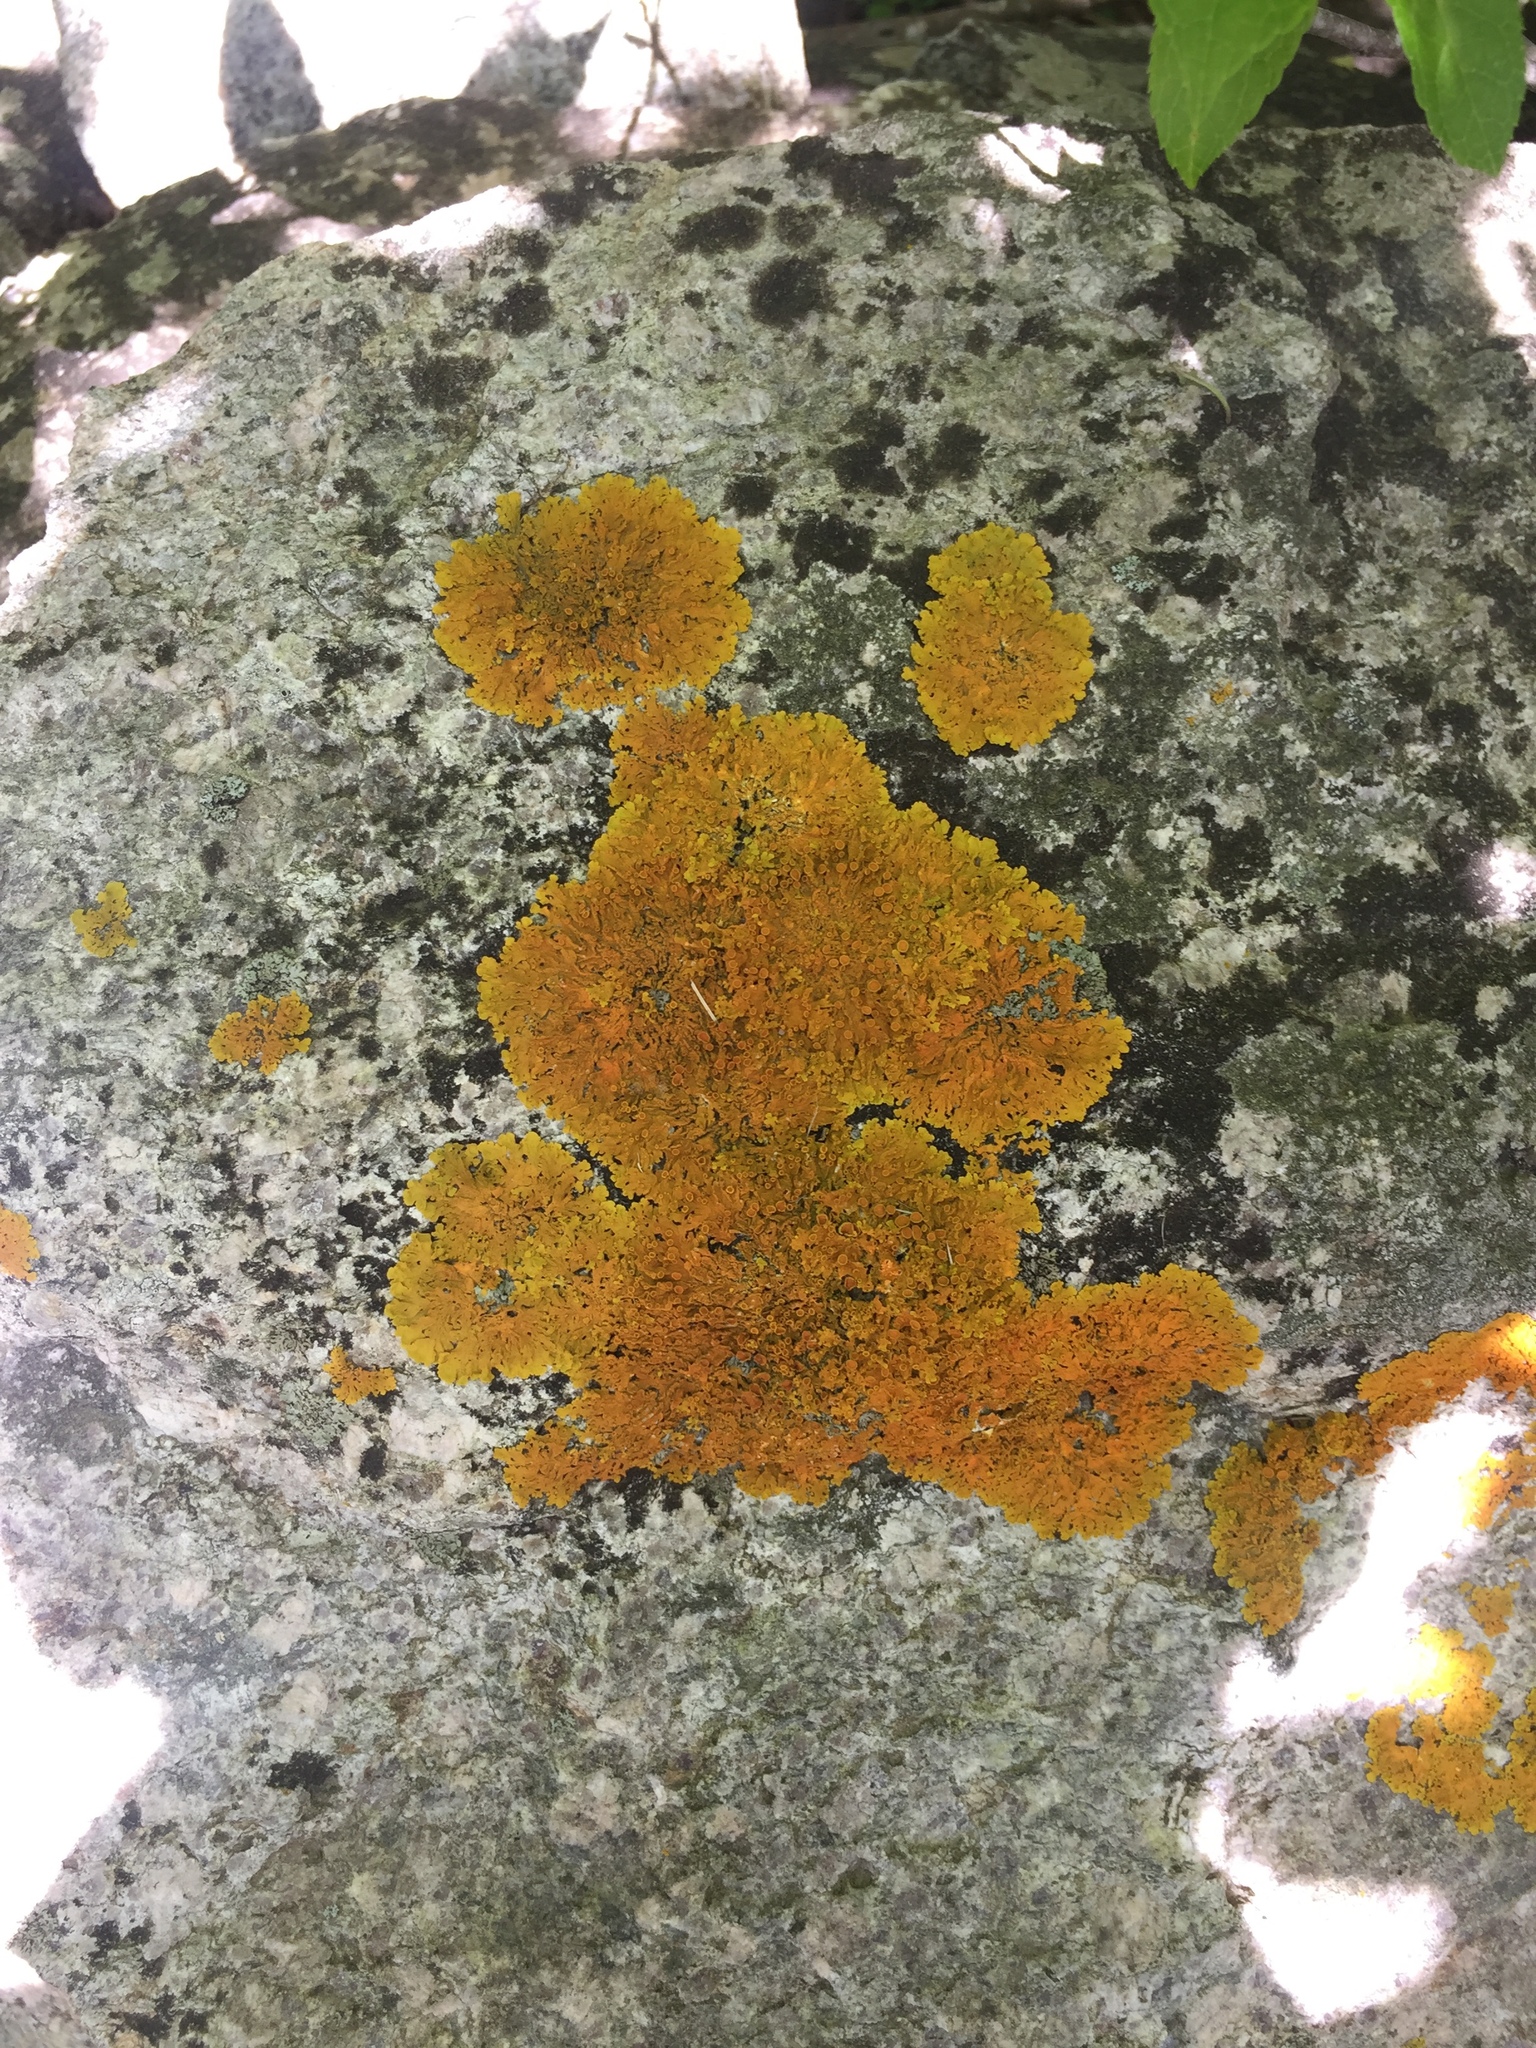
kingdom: Fungi
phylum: Ascomycota
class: Lecanoromycetes
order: Teloschistales
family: Teloschistaceae
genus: Xanthoria
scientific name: Xanthoria parietina
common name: Common orange lichen
